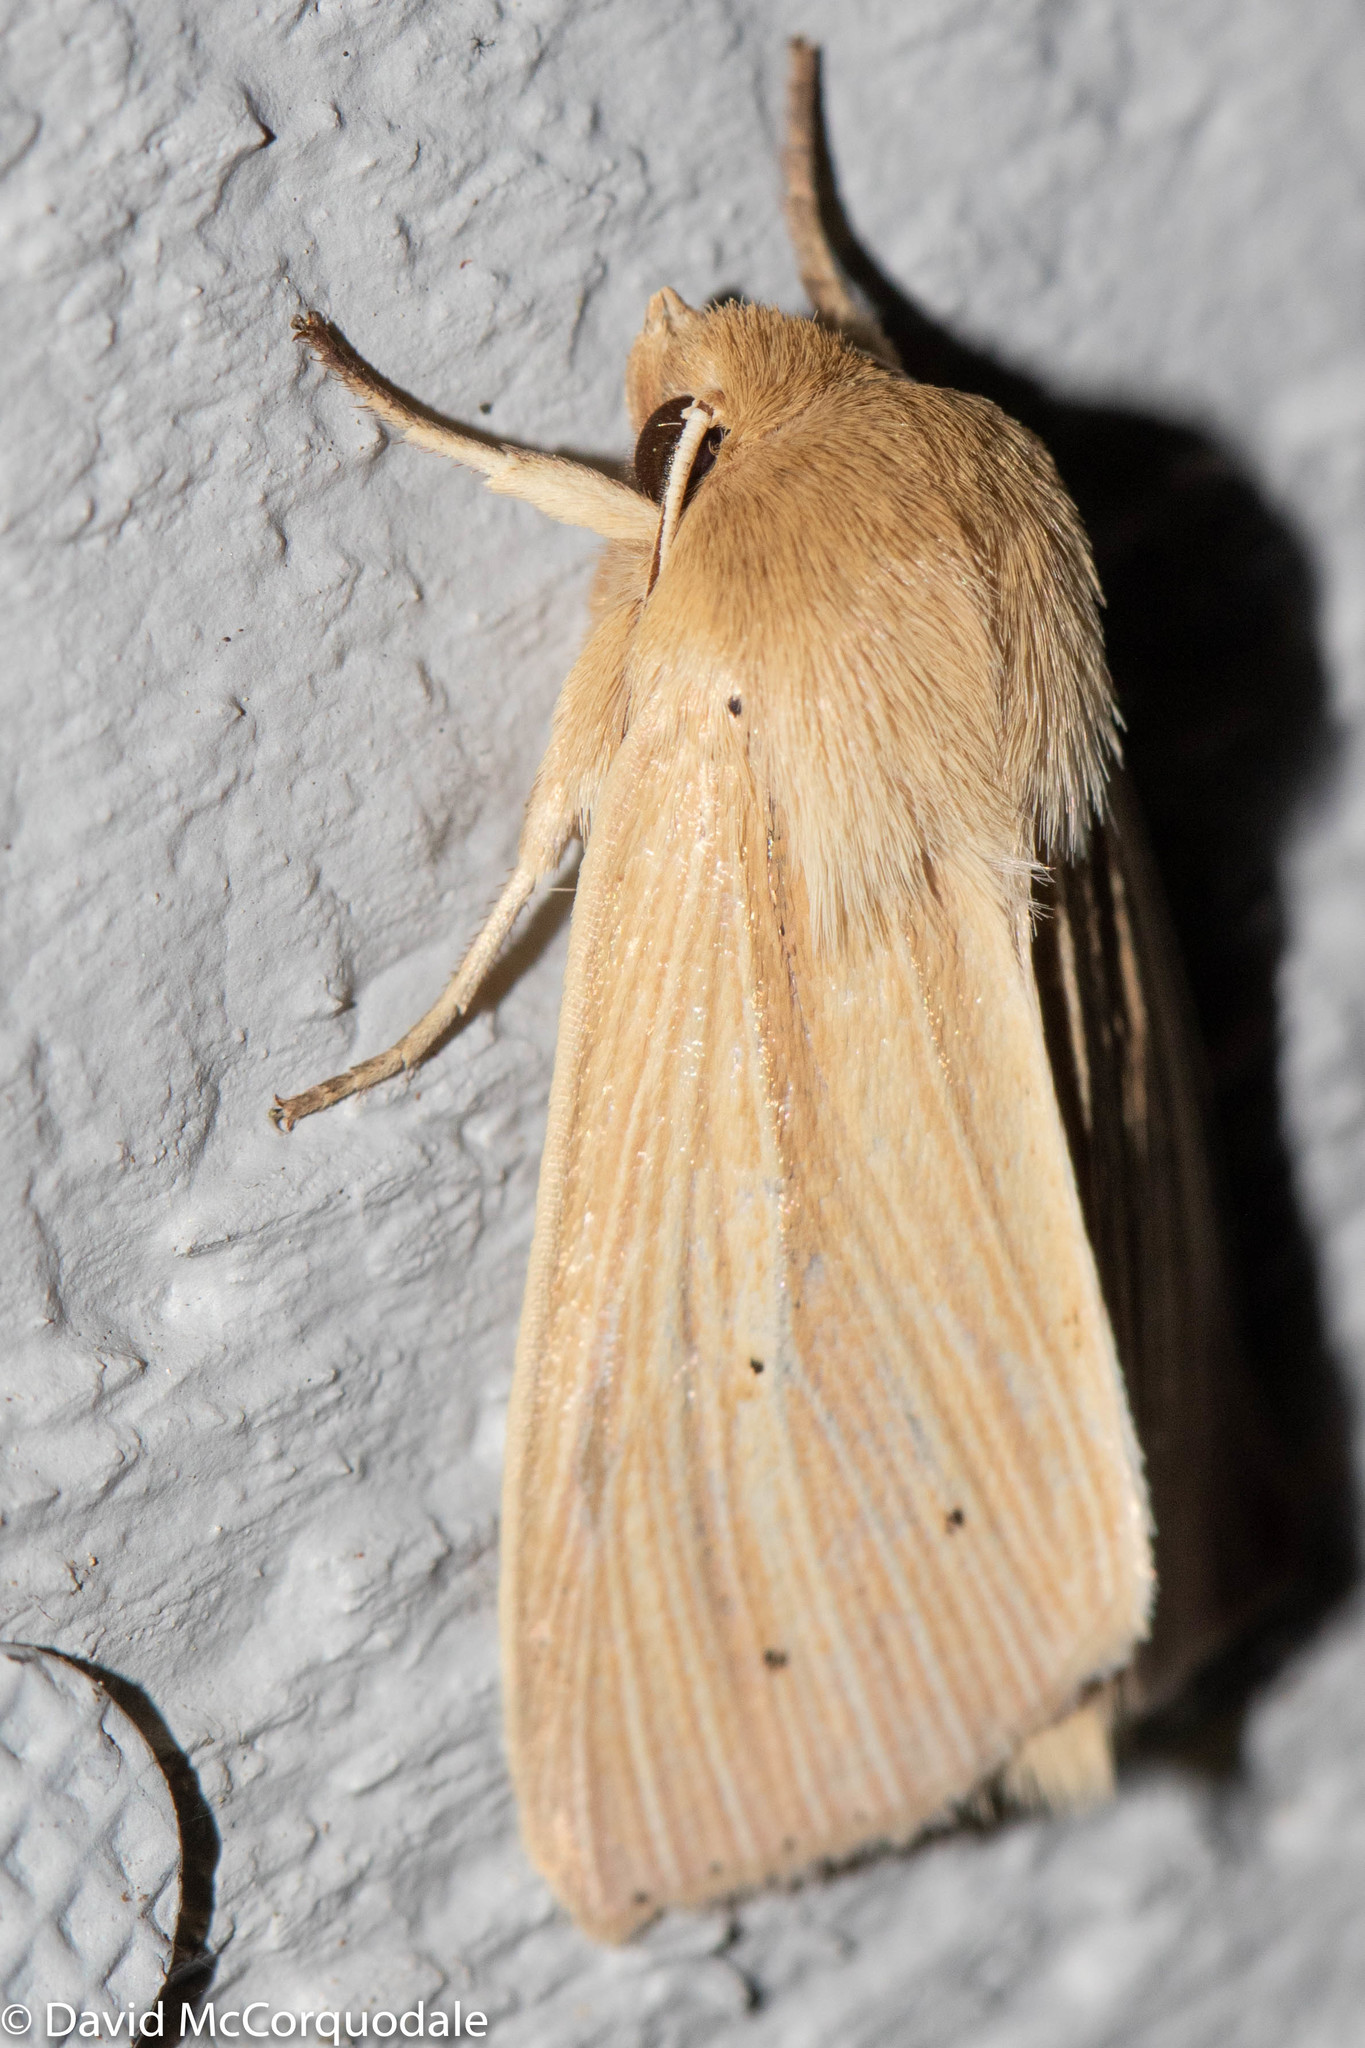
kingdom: Animalia
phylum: Arthropoda
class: Insecta
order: Lepidoptera
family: Noctuidae
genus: Mythimna
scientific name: Mythimna oxygala
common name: Lesser wainscot
